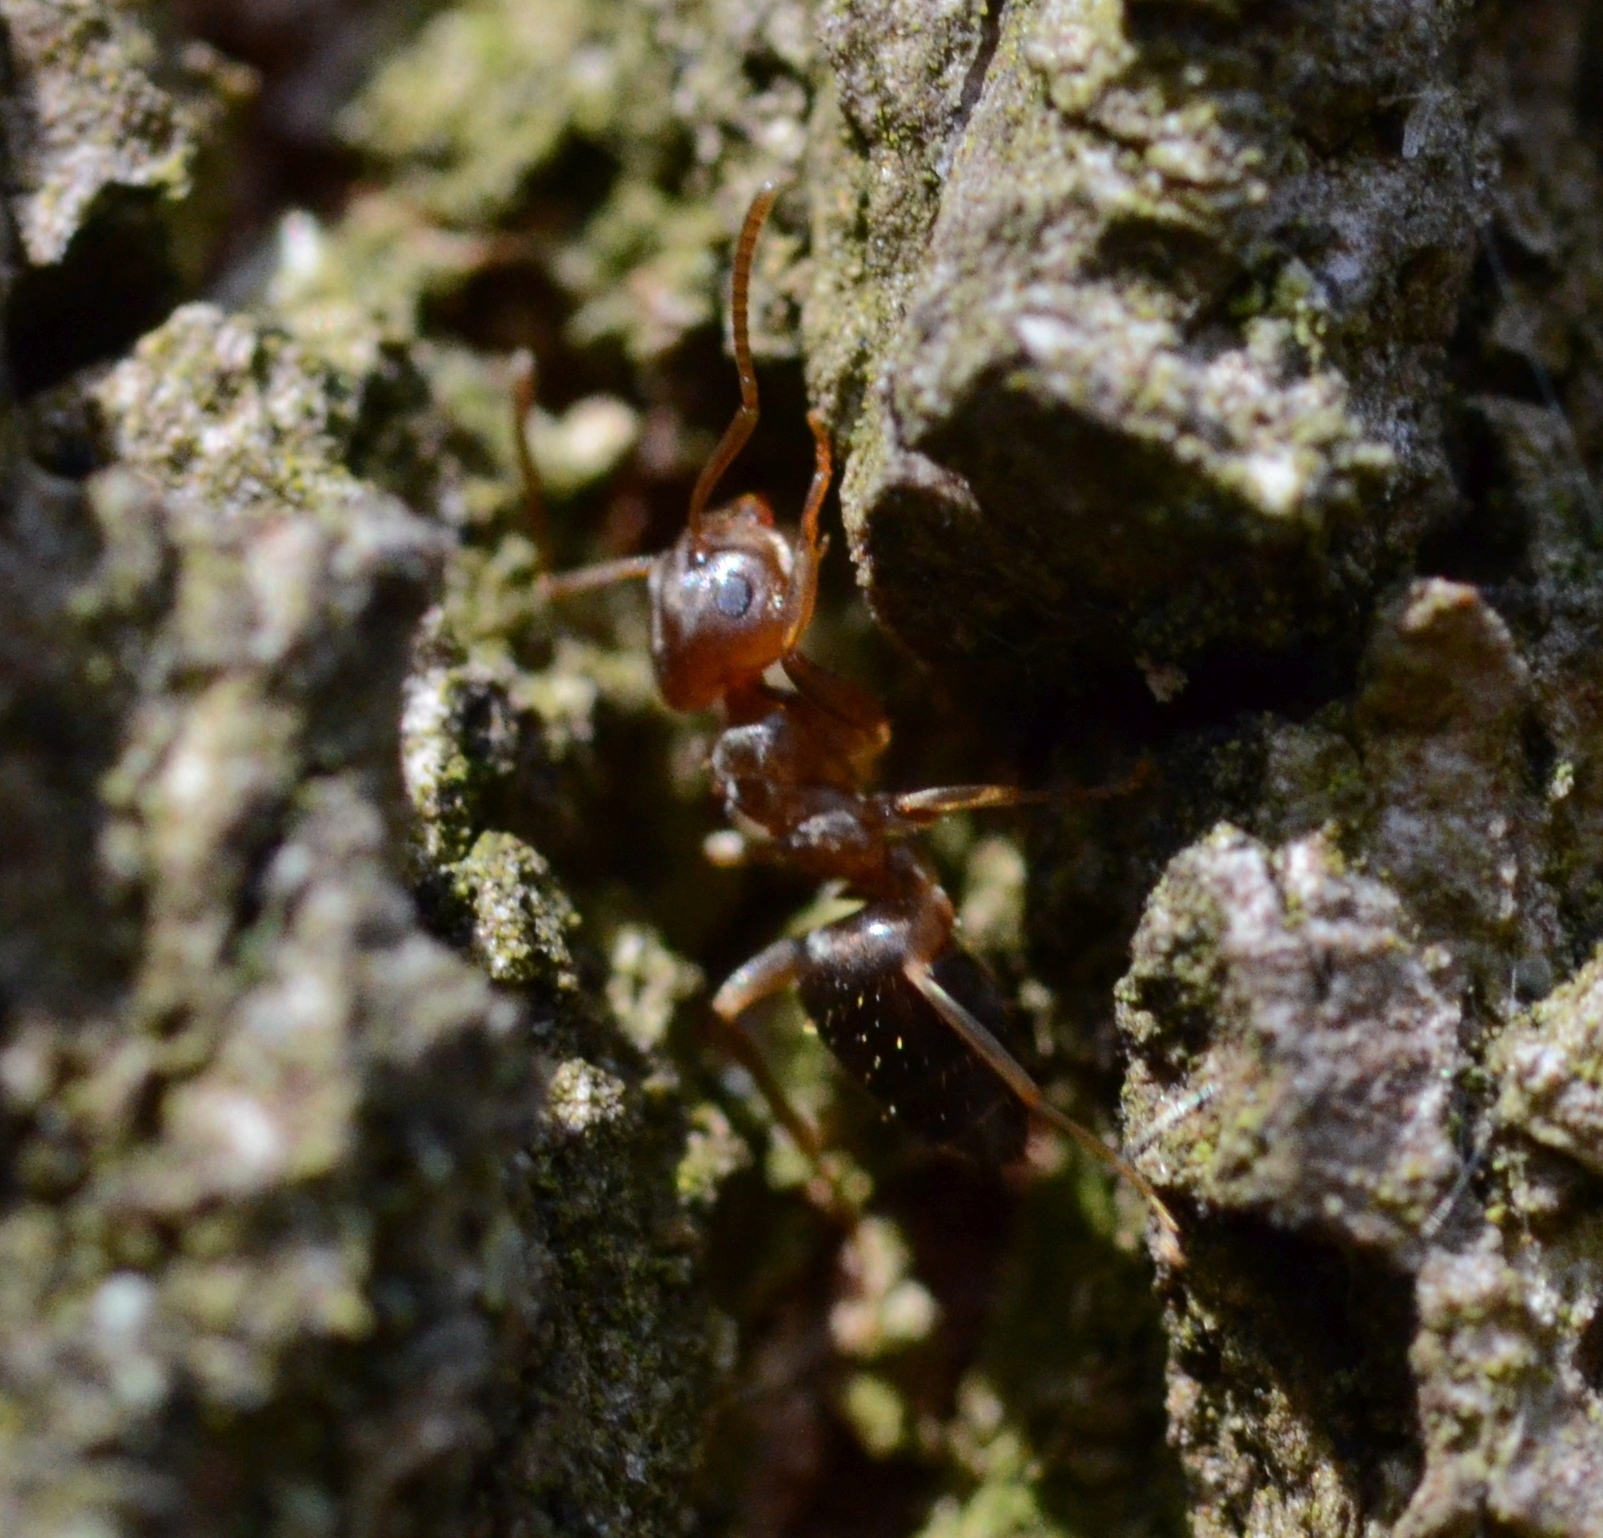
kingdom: Animalia
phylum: Arthropoda
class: Insecta
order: Hymenoptera
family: Formicidae
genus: Lasius
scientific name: Lasius brunneus
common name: Brown ant
